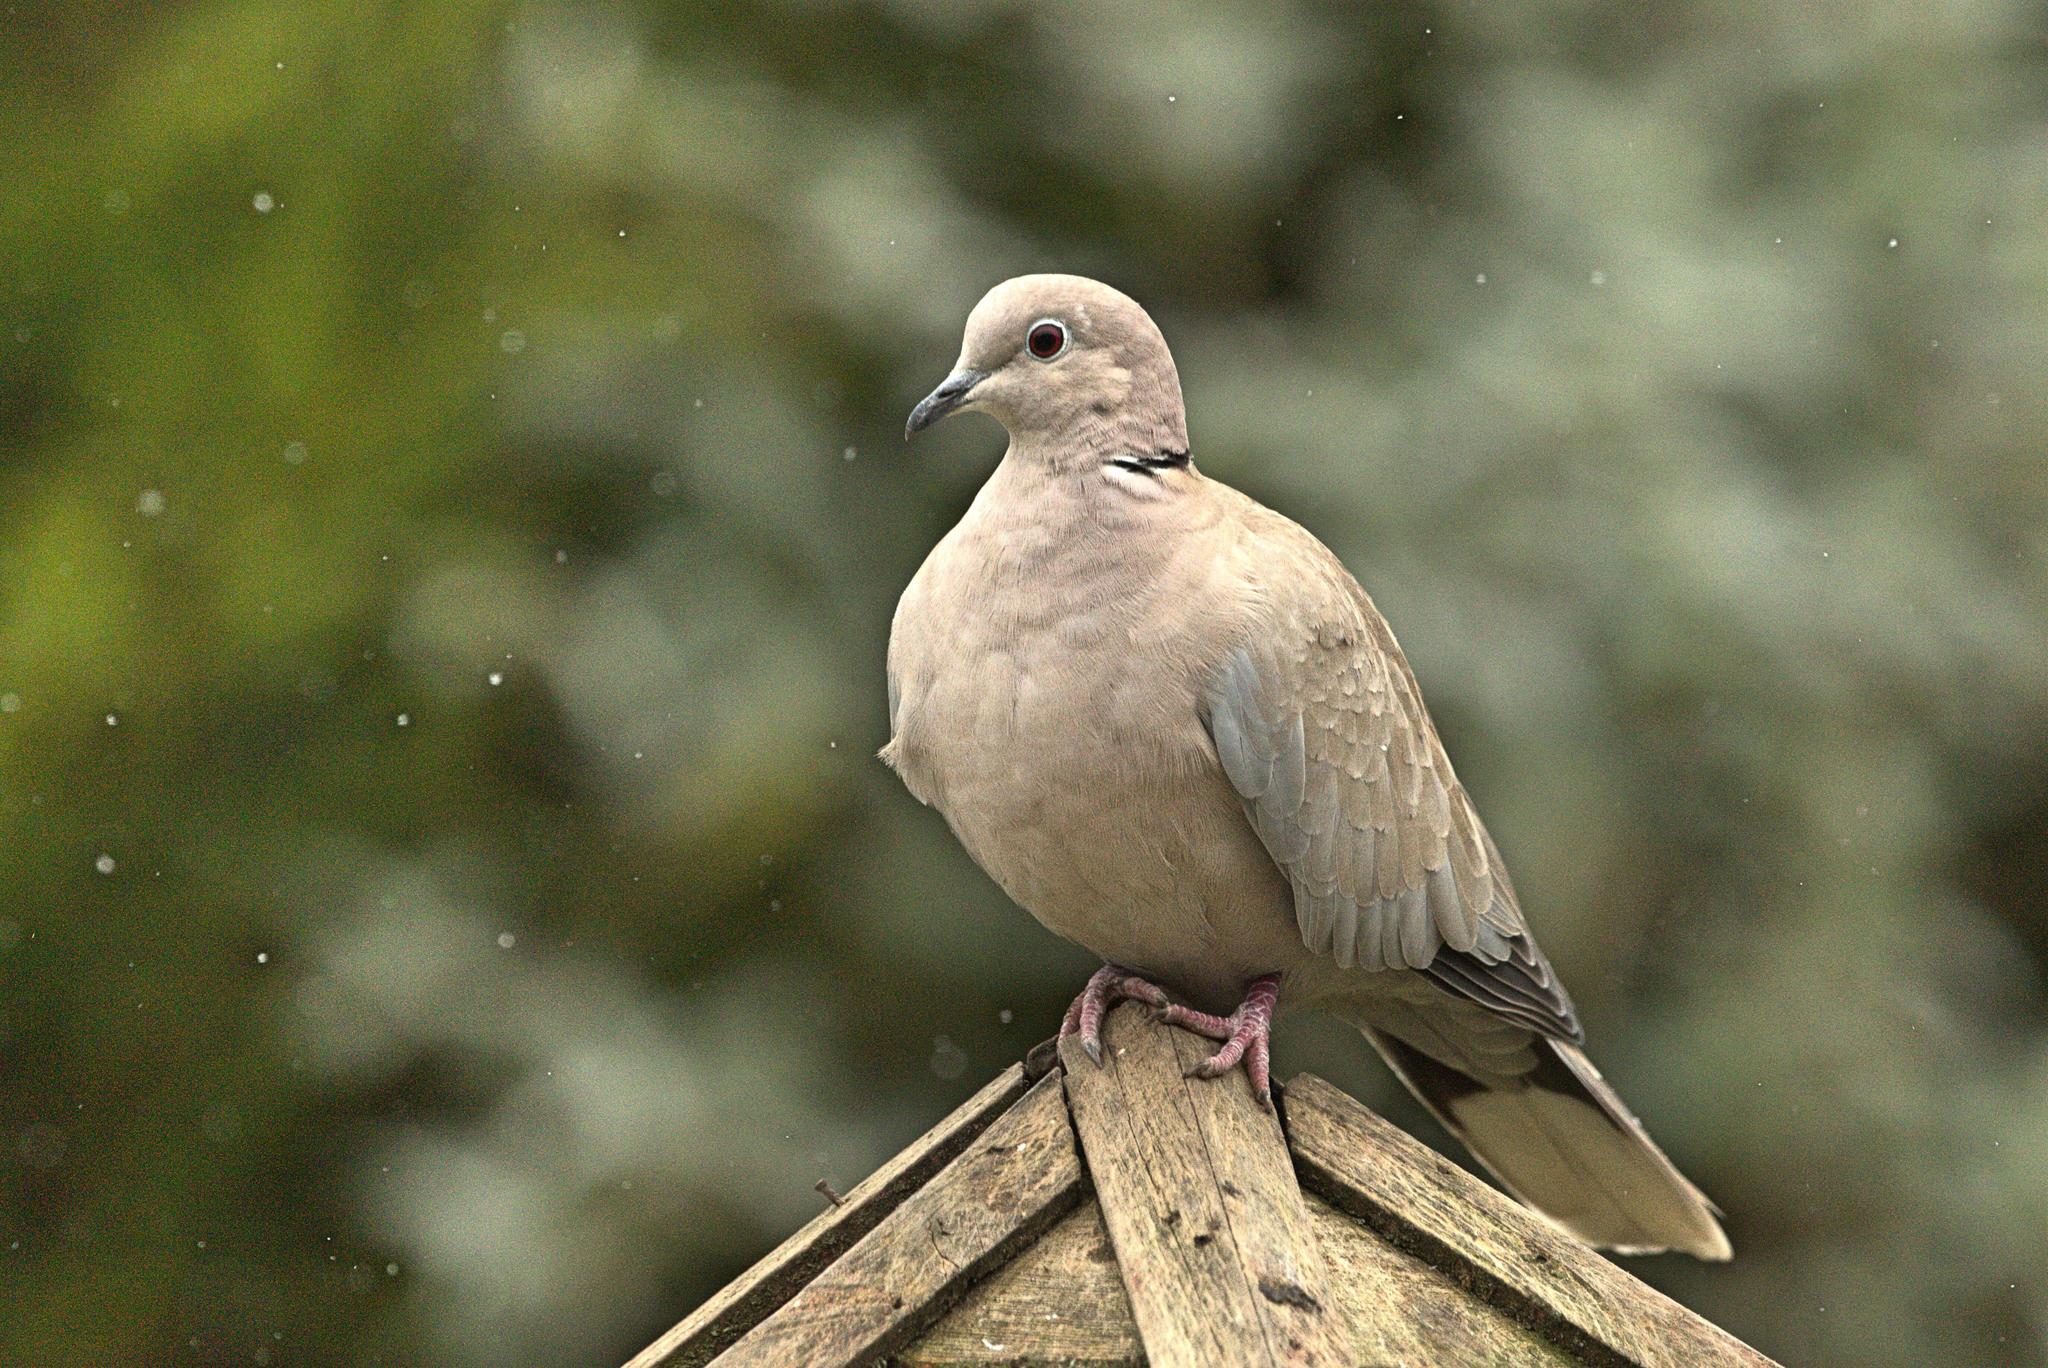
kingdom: Animalia
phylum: Chordata
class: Aves
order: Columbiformes
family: Columbidae
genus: Streptopelia
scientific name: Streptopelia decaocto
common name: Eurasian collared dove
